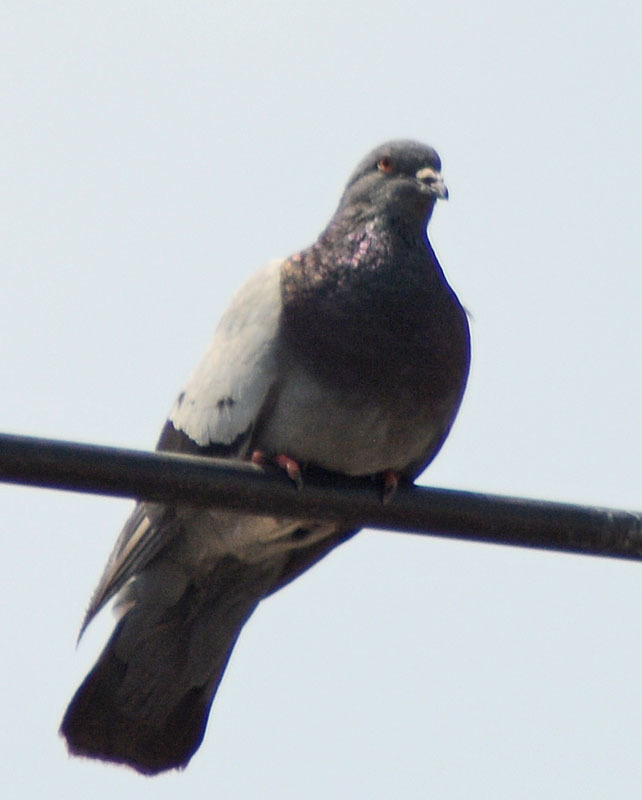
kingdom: Animalia
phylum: Chordata
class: Aves
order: Columbiformes
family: Columbidae
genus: Columba
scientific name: Columba livia
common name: Rock pigeon
